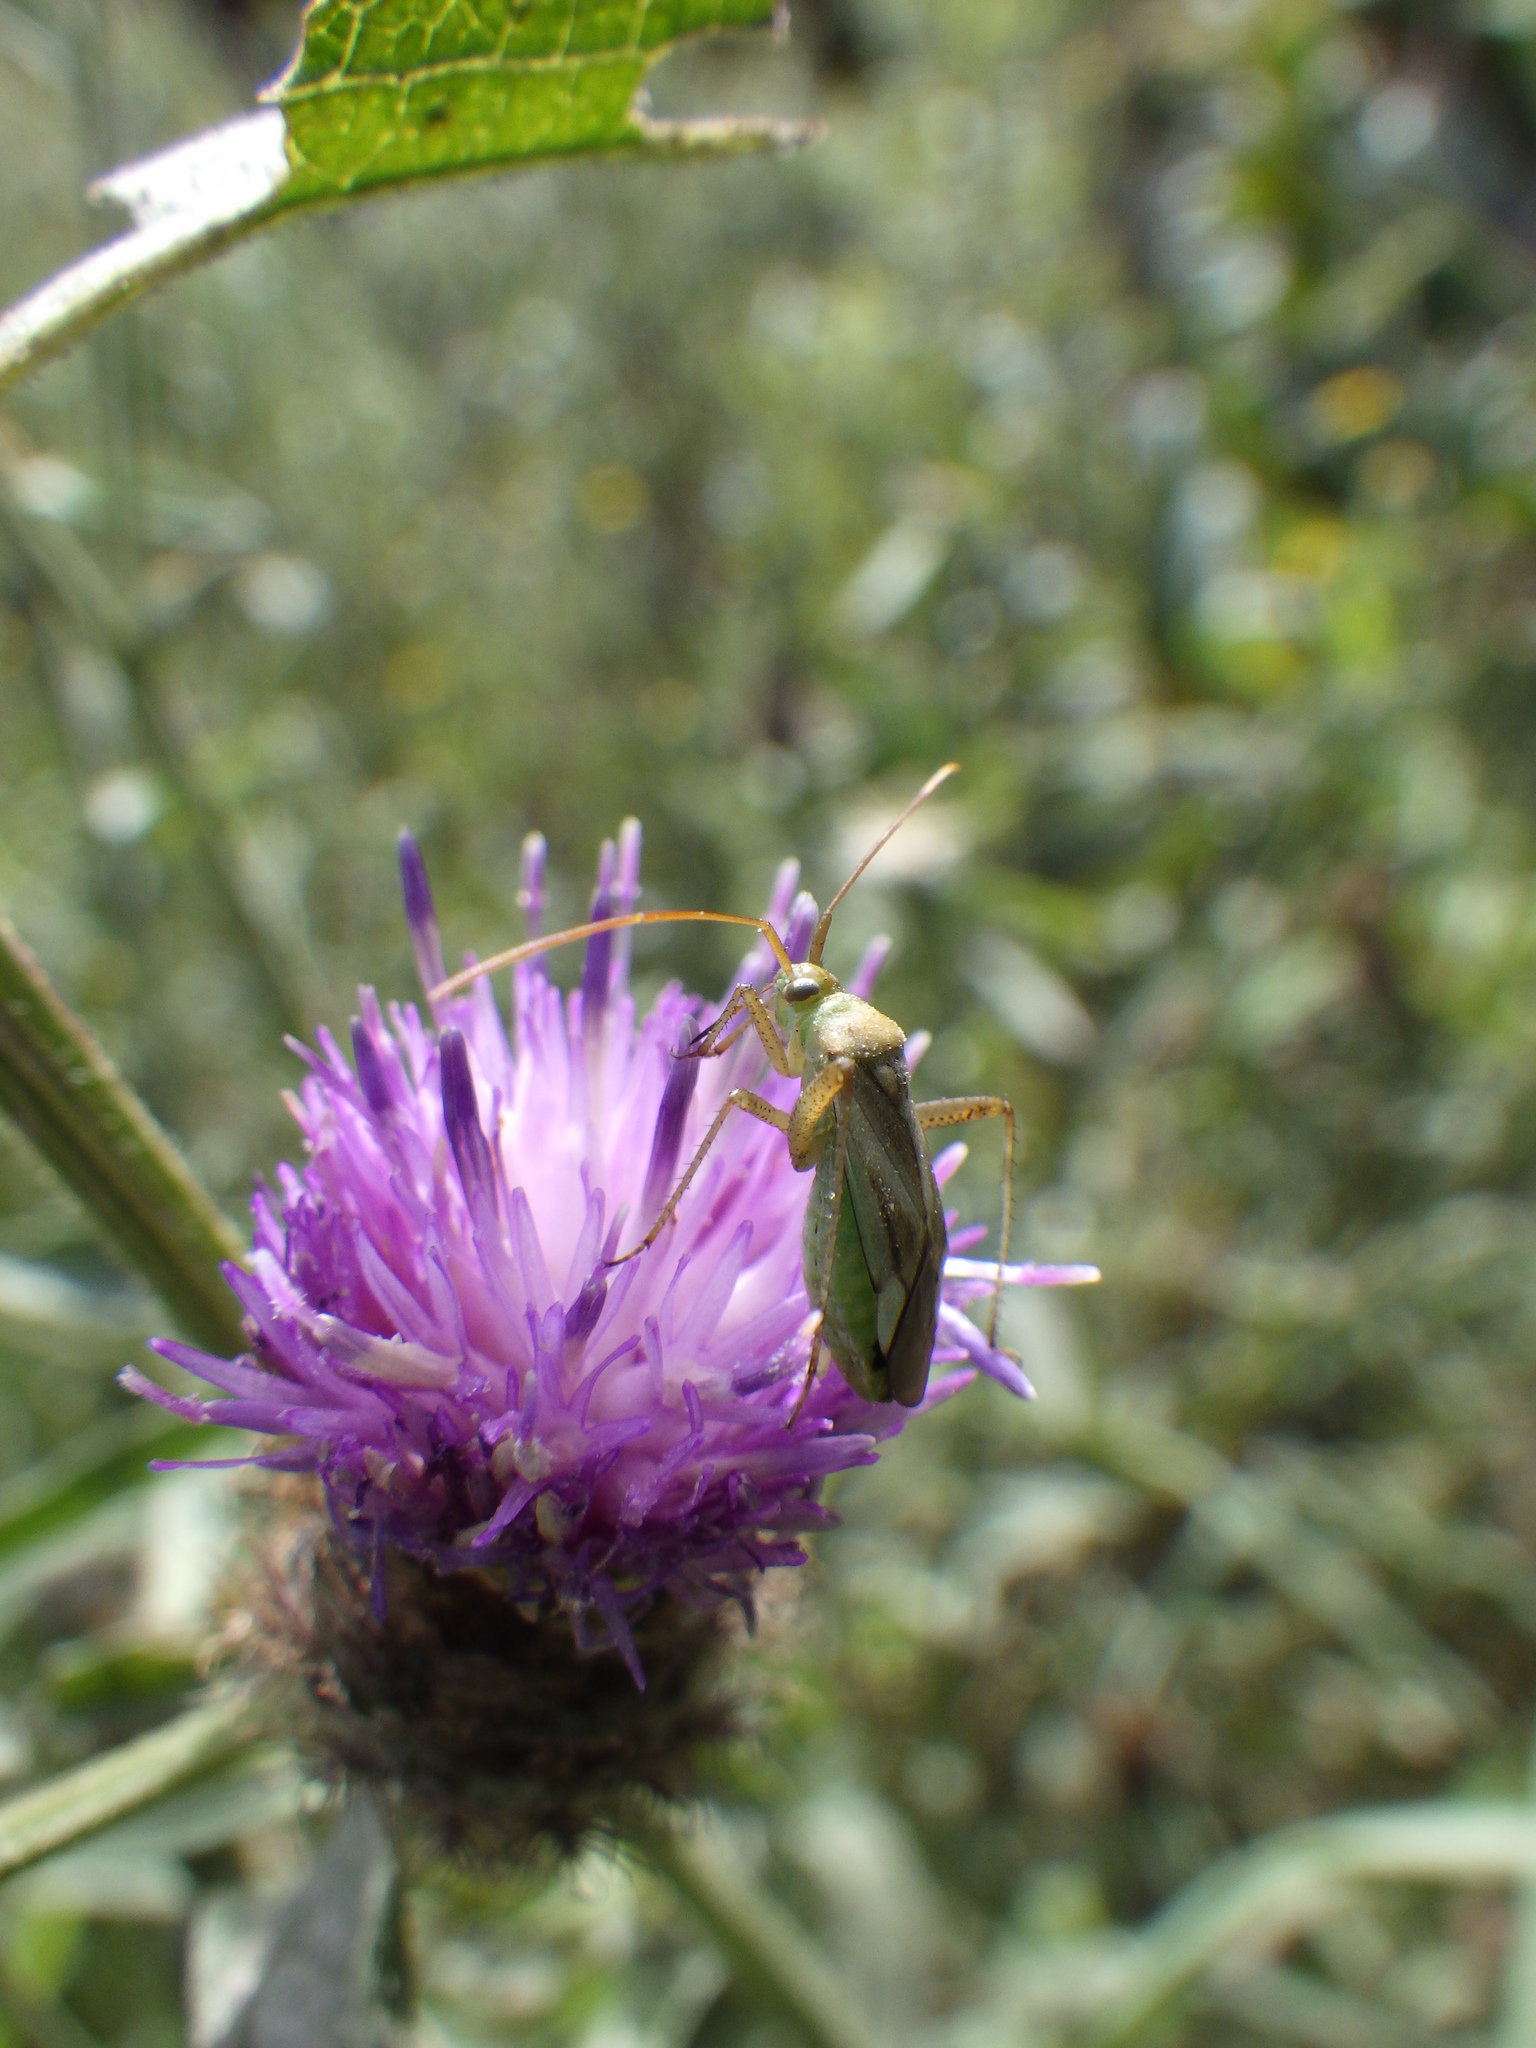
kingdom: Animalia
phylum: Arthropoda
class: Insecta
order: Hemiptera
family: Miridae
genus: Adelphocoris
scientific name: Adelphocoris lineolatus
